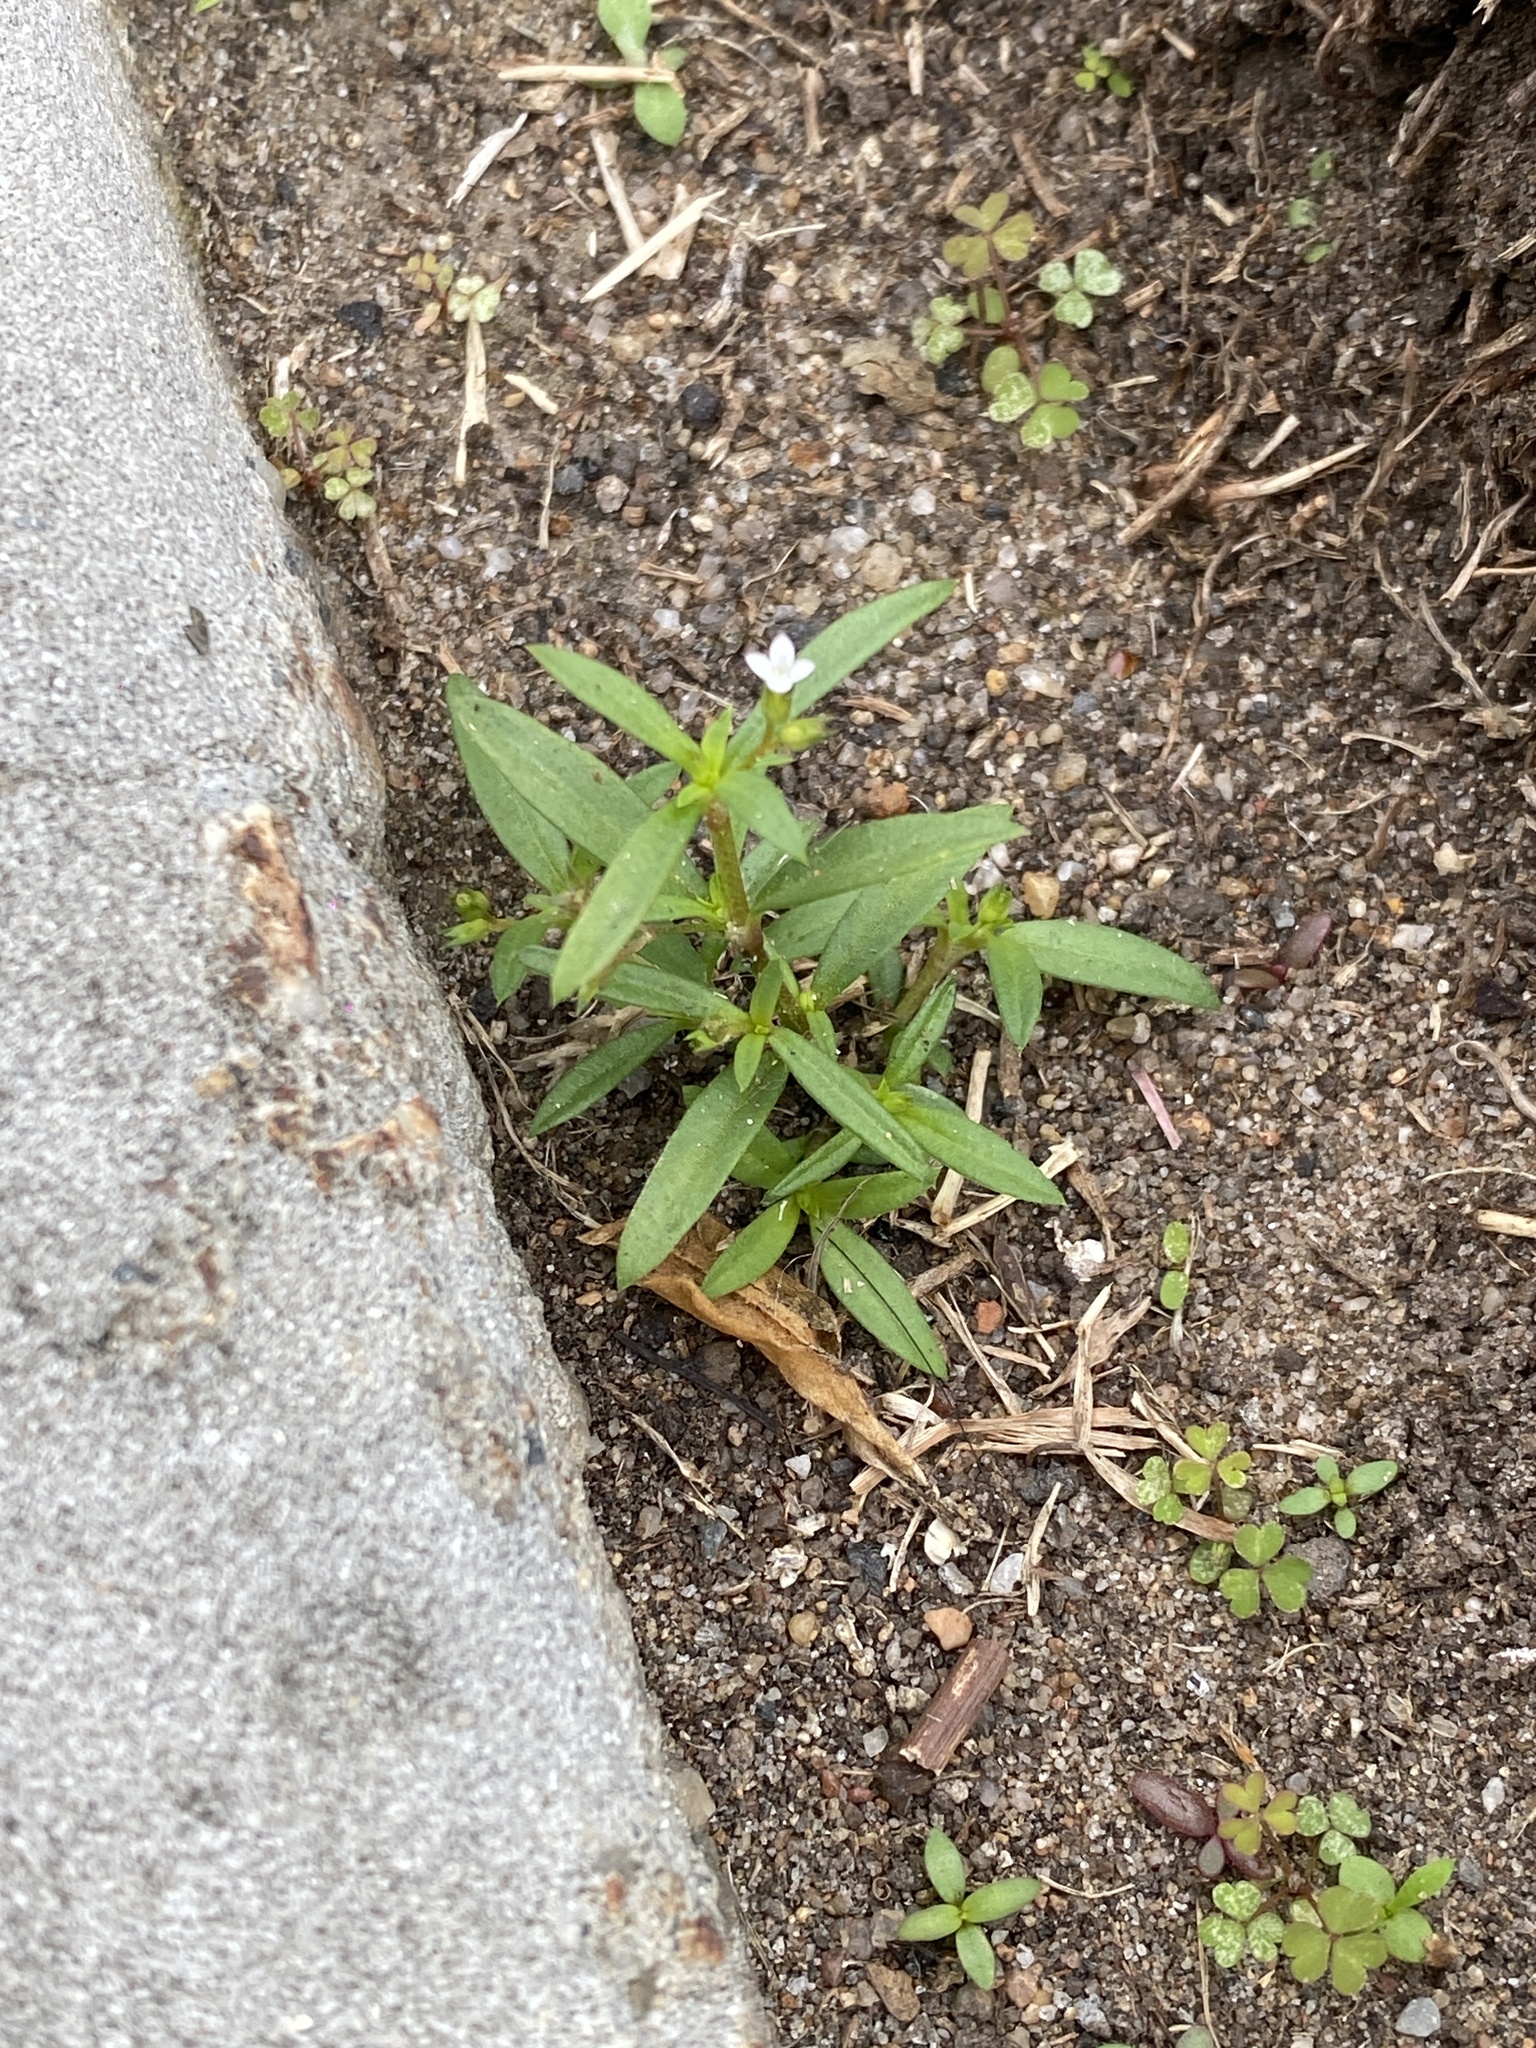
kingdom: Plantae
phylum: Tracheophyta
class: Magnoliopsida
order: Gentianales
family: Rubiaceae
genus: Oldenlandia
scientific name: Oldenlandia corymbosa
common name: Flat-top mille graines
